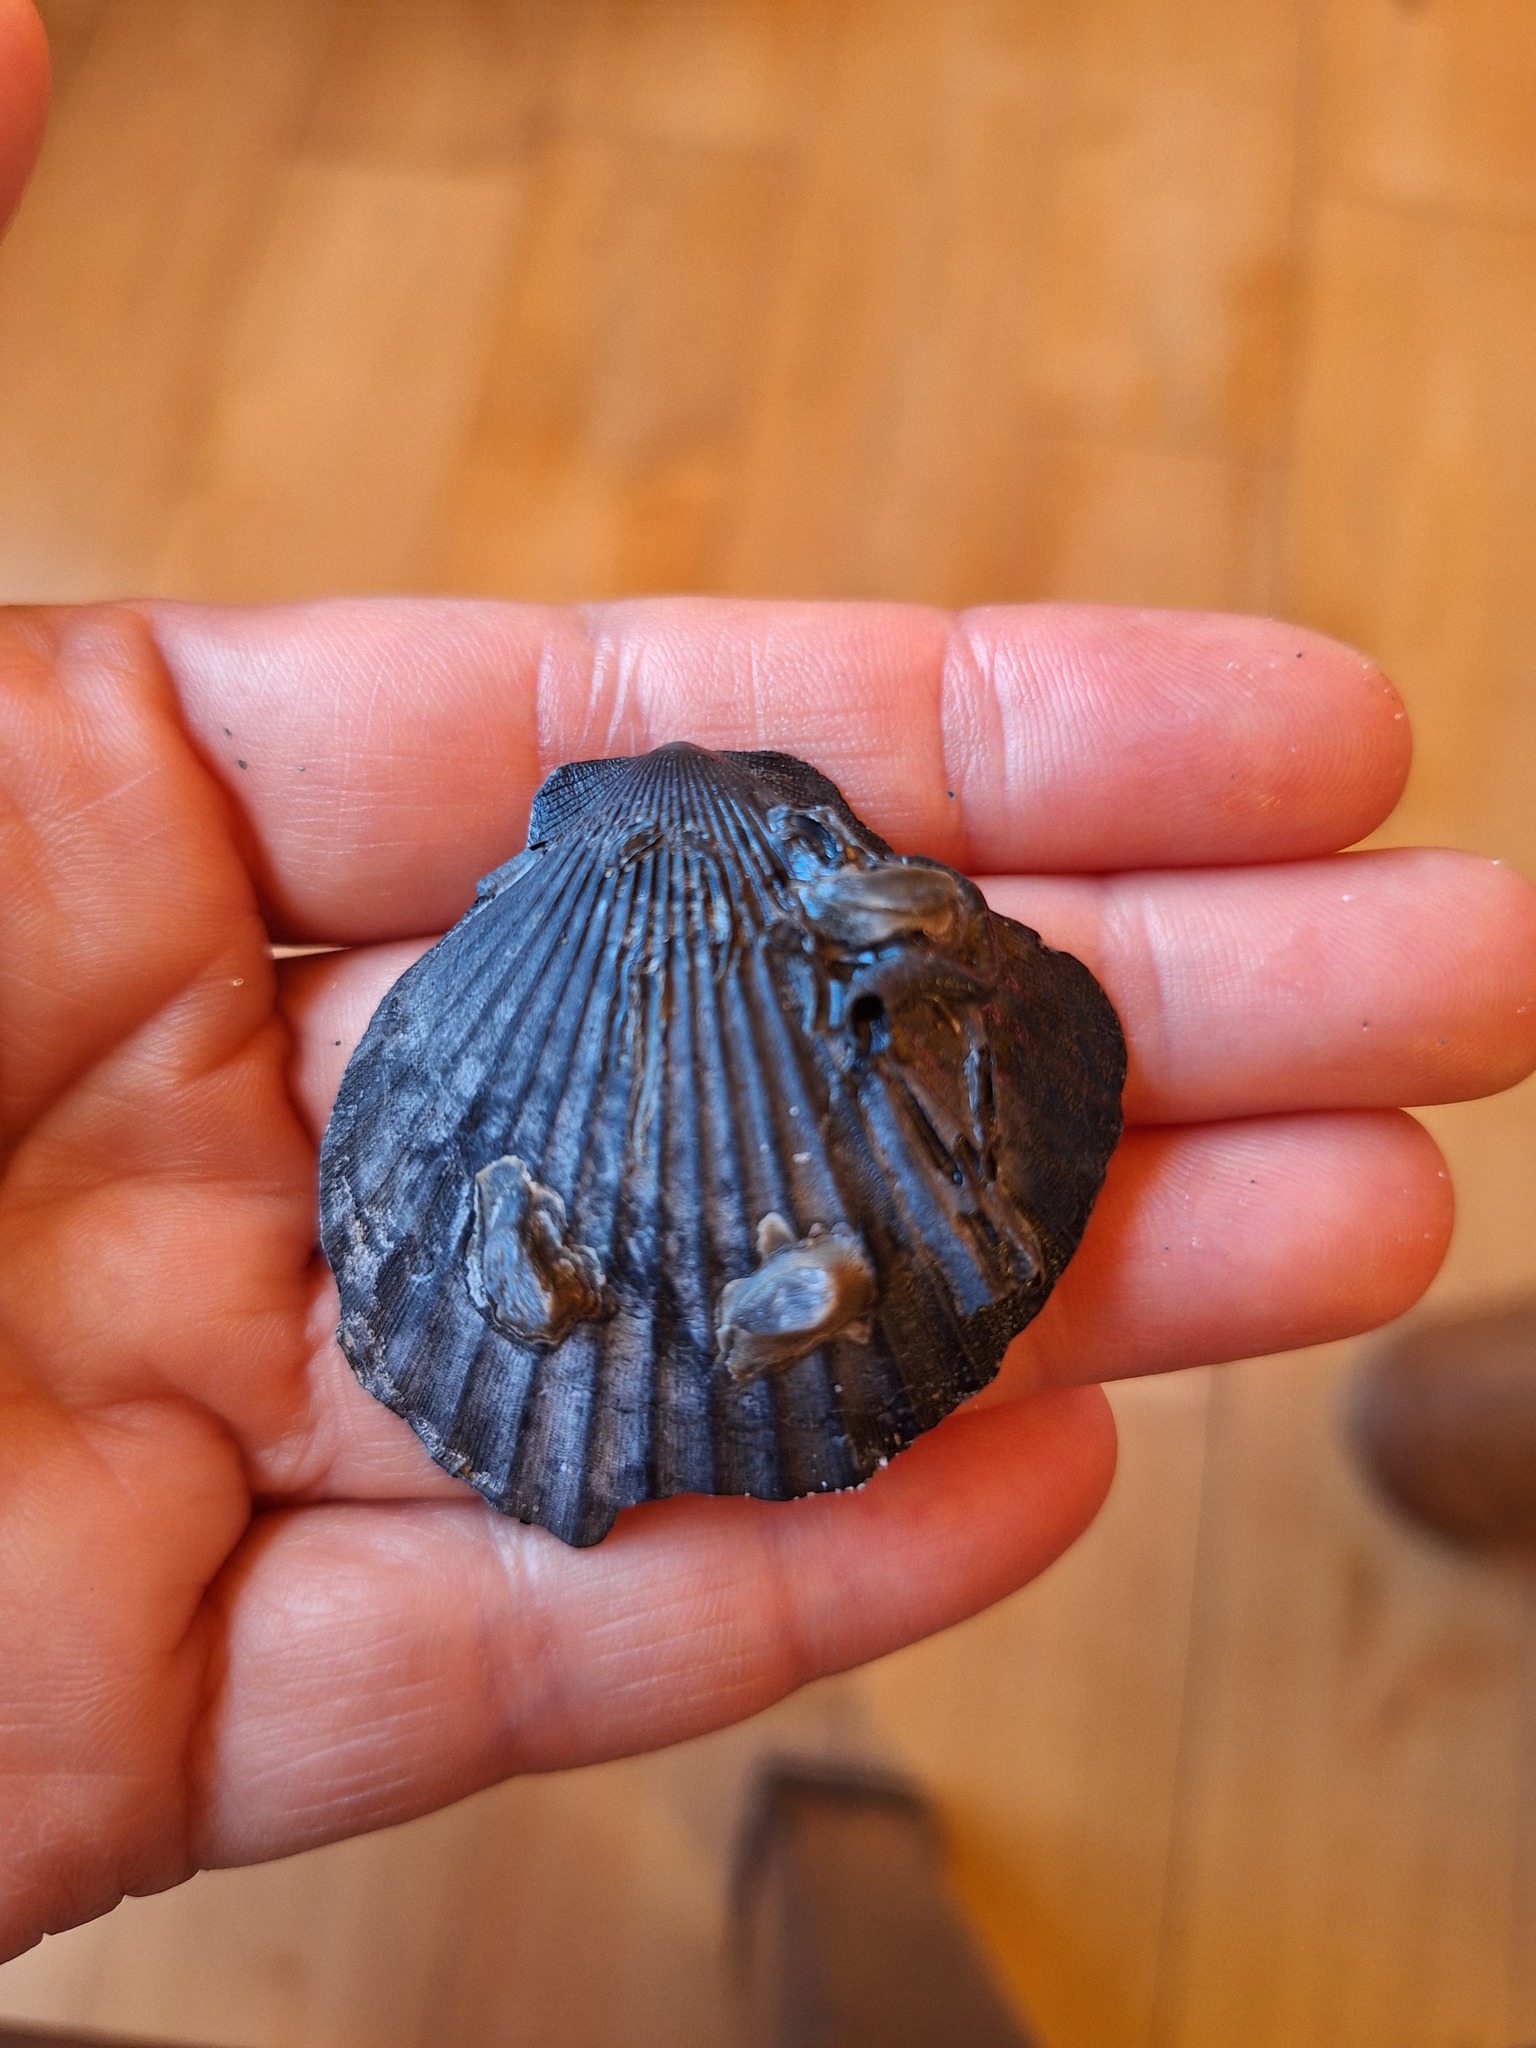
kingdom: Animalia
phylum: Mollusca
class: Bivalvia
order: Pectinida
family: Pectinidae
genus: Aequipecten
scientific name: Aequipecten opercularis
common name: Queen scallop
